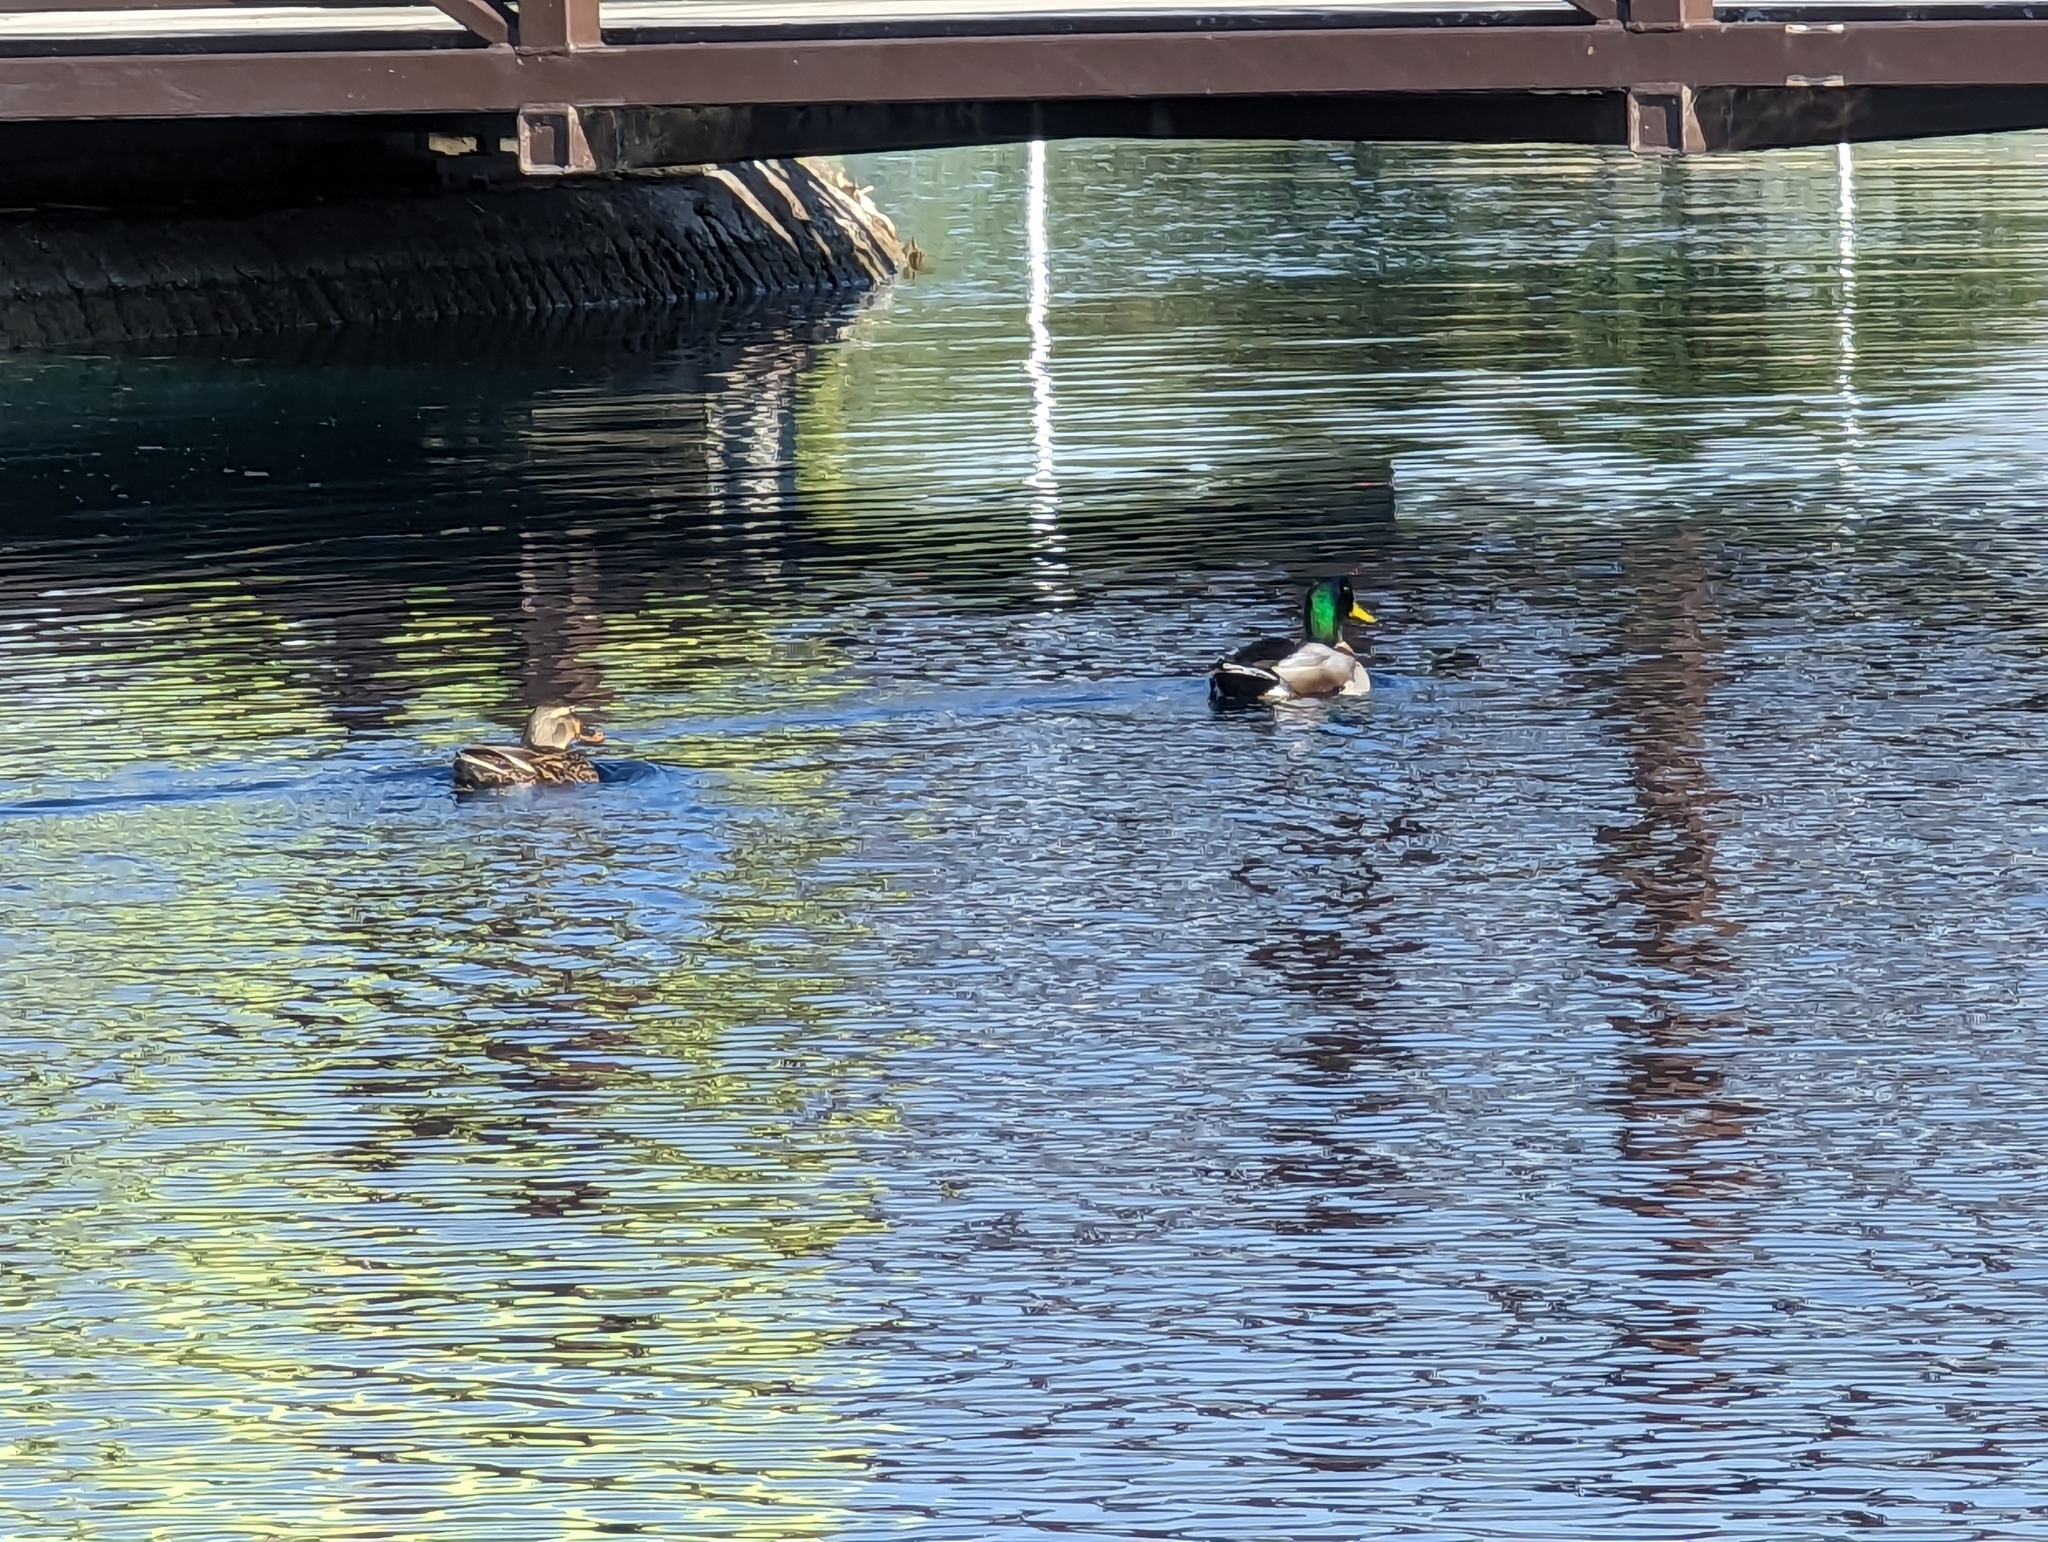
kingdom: Animalia
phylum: Chordata
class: Aves
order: Anseriformes
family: Anatidae
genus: Anas
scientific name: Anas platyrhynchos
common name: Mallard
